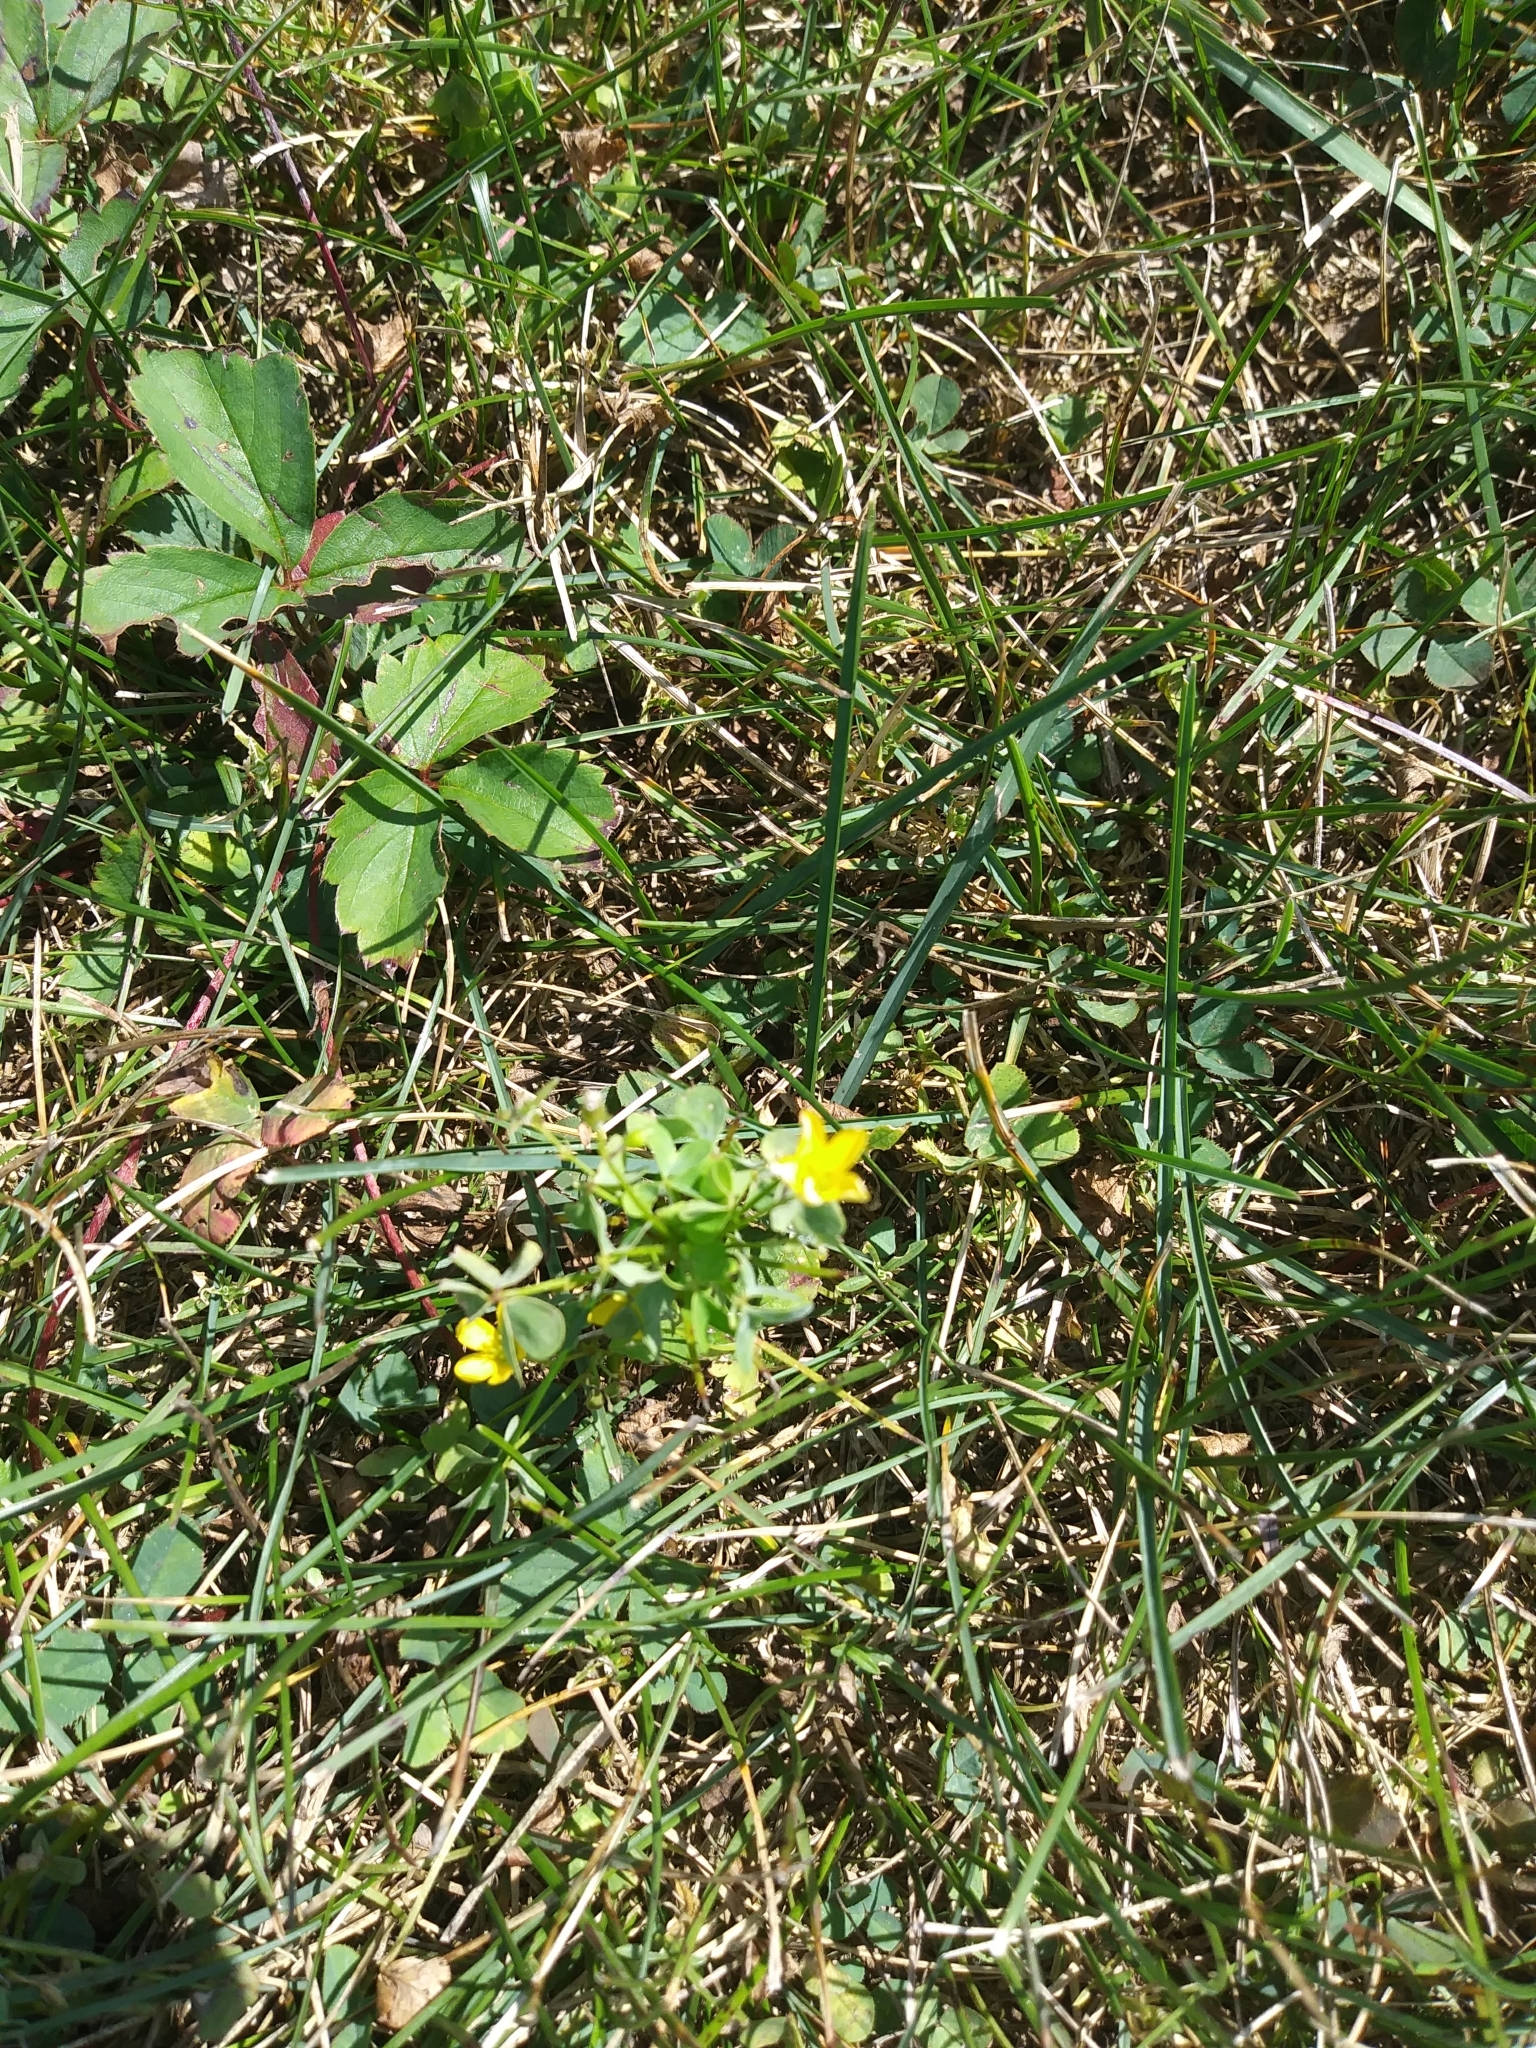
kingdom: Plantae
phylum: Tracheophyta
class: Magnoliopsida
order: Oxalidales
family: Oxalidaceae
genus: Oxalis
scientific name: Oxalis
